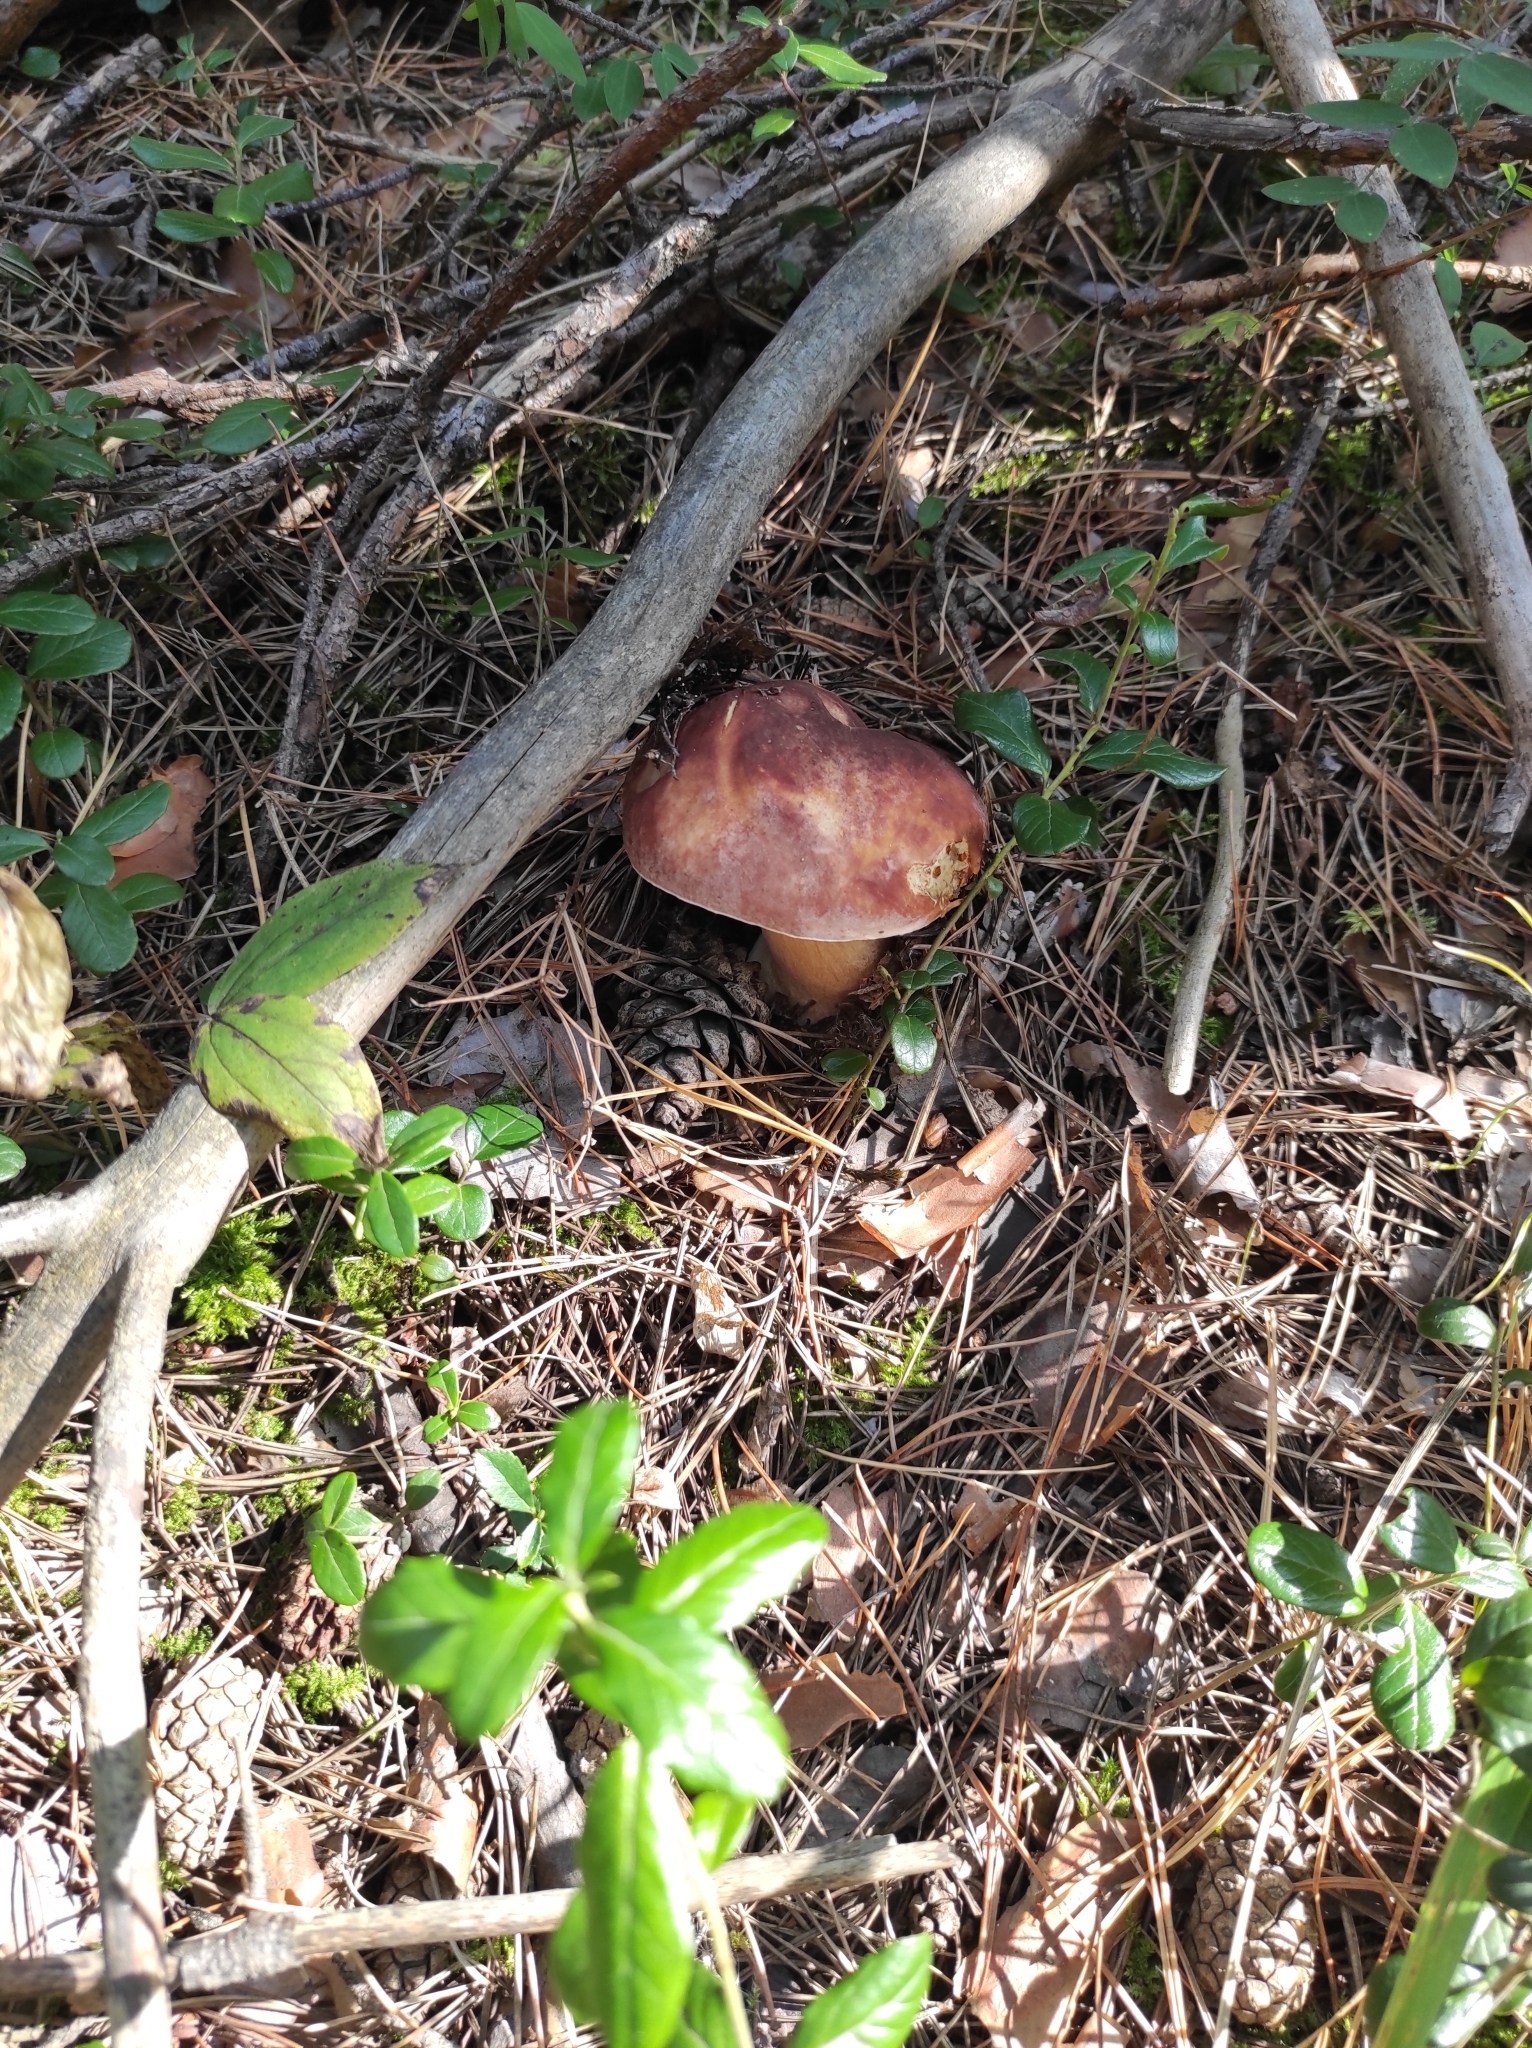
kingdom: Fungi
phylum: Basidiomycota
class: Agaricomycetes
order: Boletales
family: Boletaceae
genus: Boletus
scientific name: Boletus pinophilus
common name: Pine bolete
